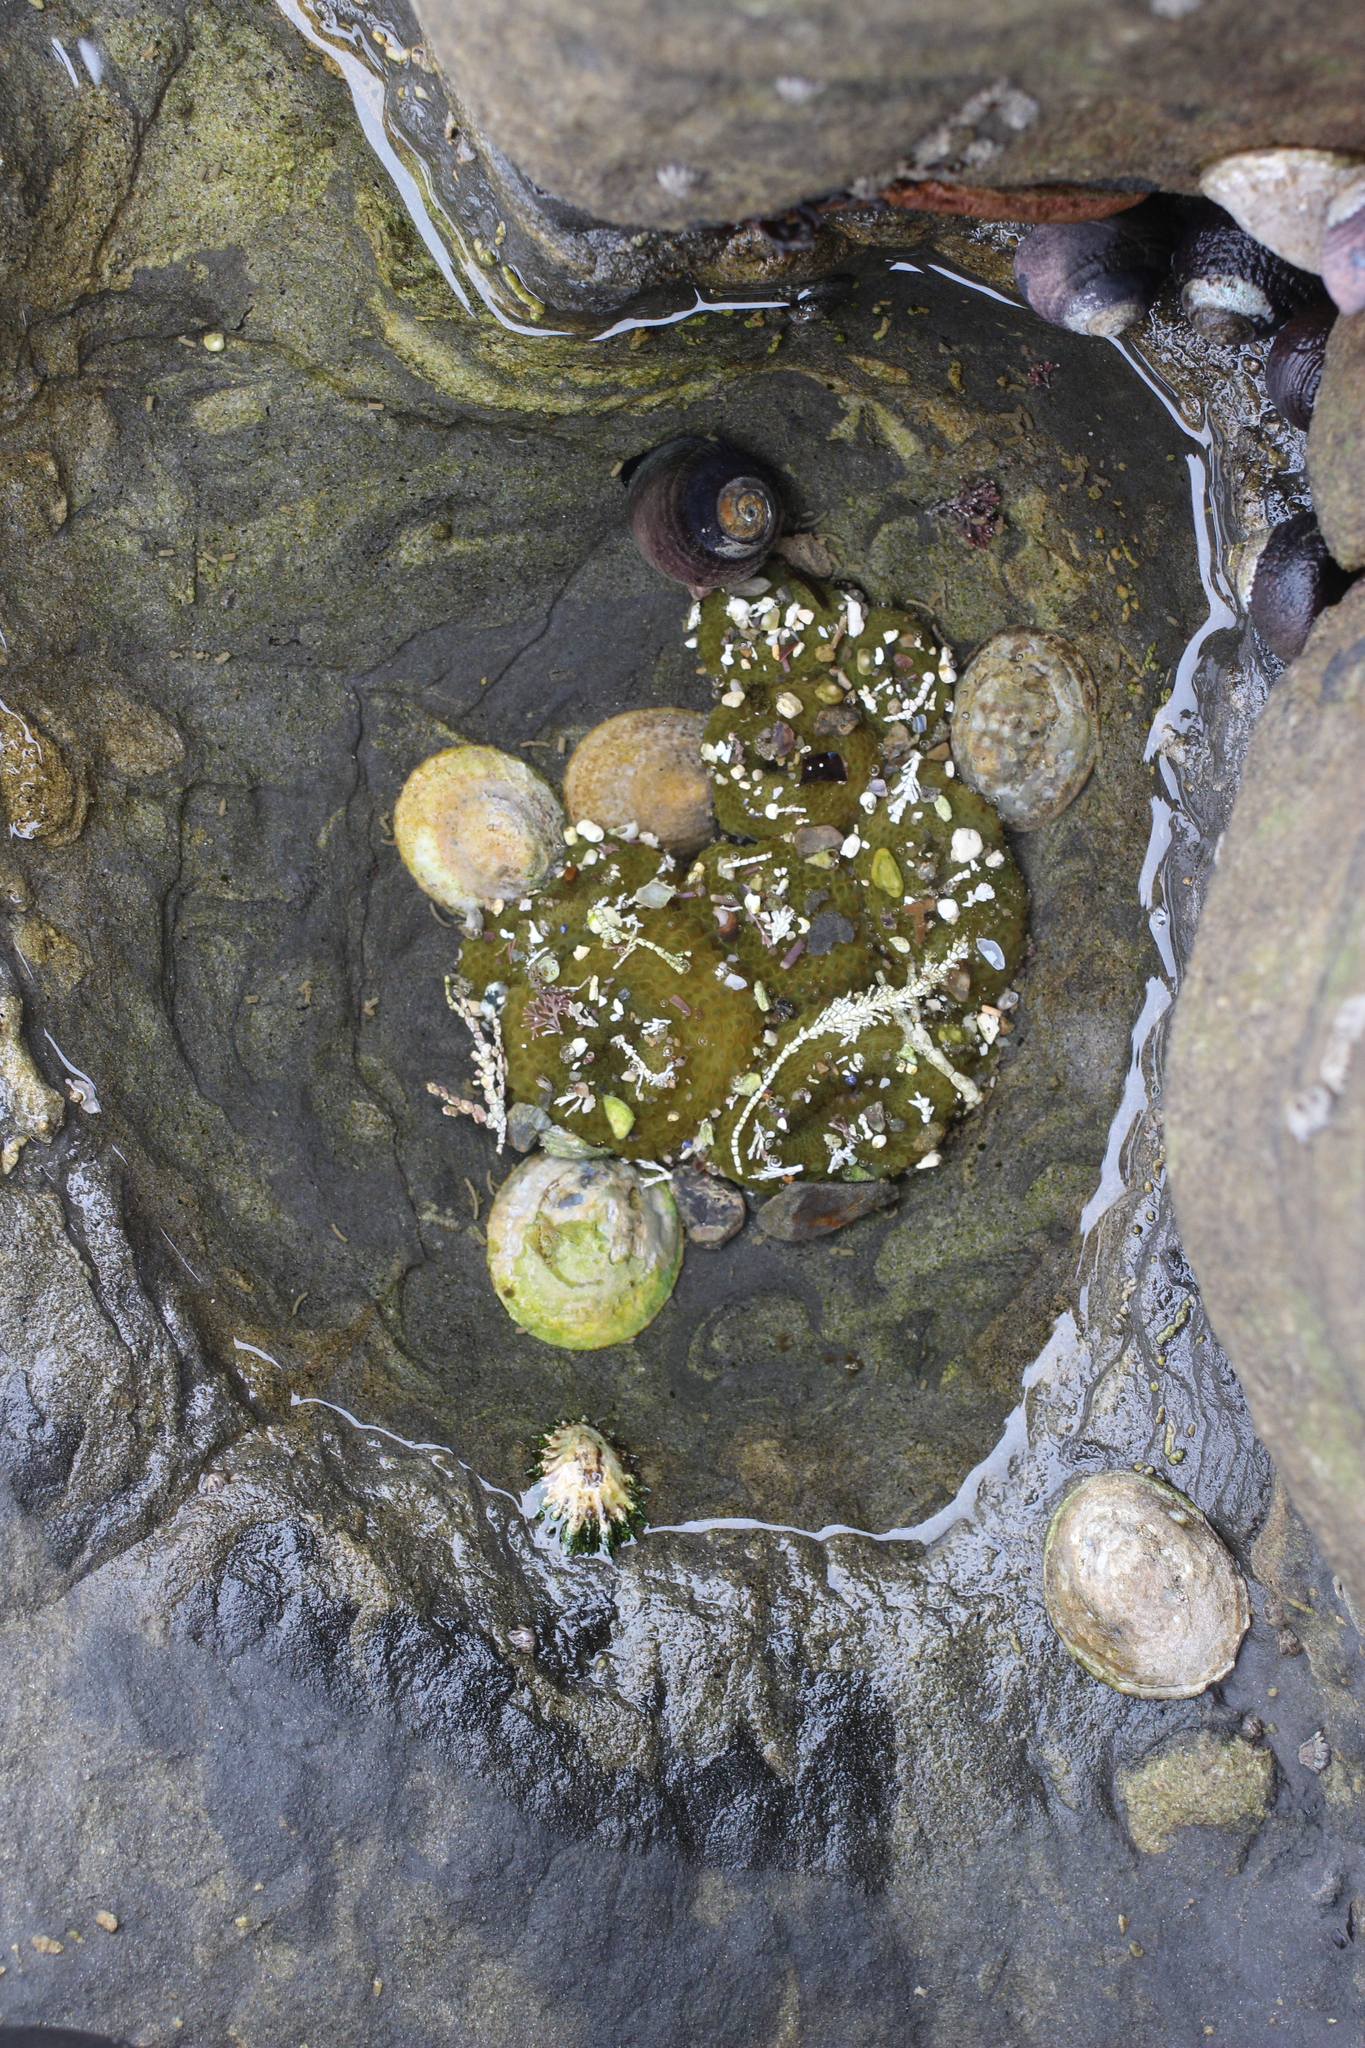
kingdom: Animalia
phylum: Cnidaria
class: Anthozoa
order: Actiniaria
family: Actiniidae
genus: Anthopleura
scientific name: Anthopleura elegantissima
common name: Clonal anemone
